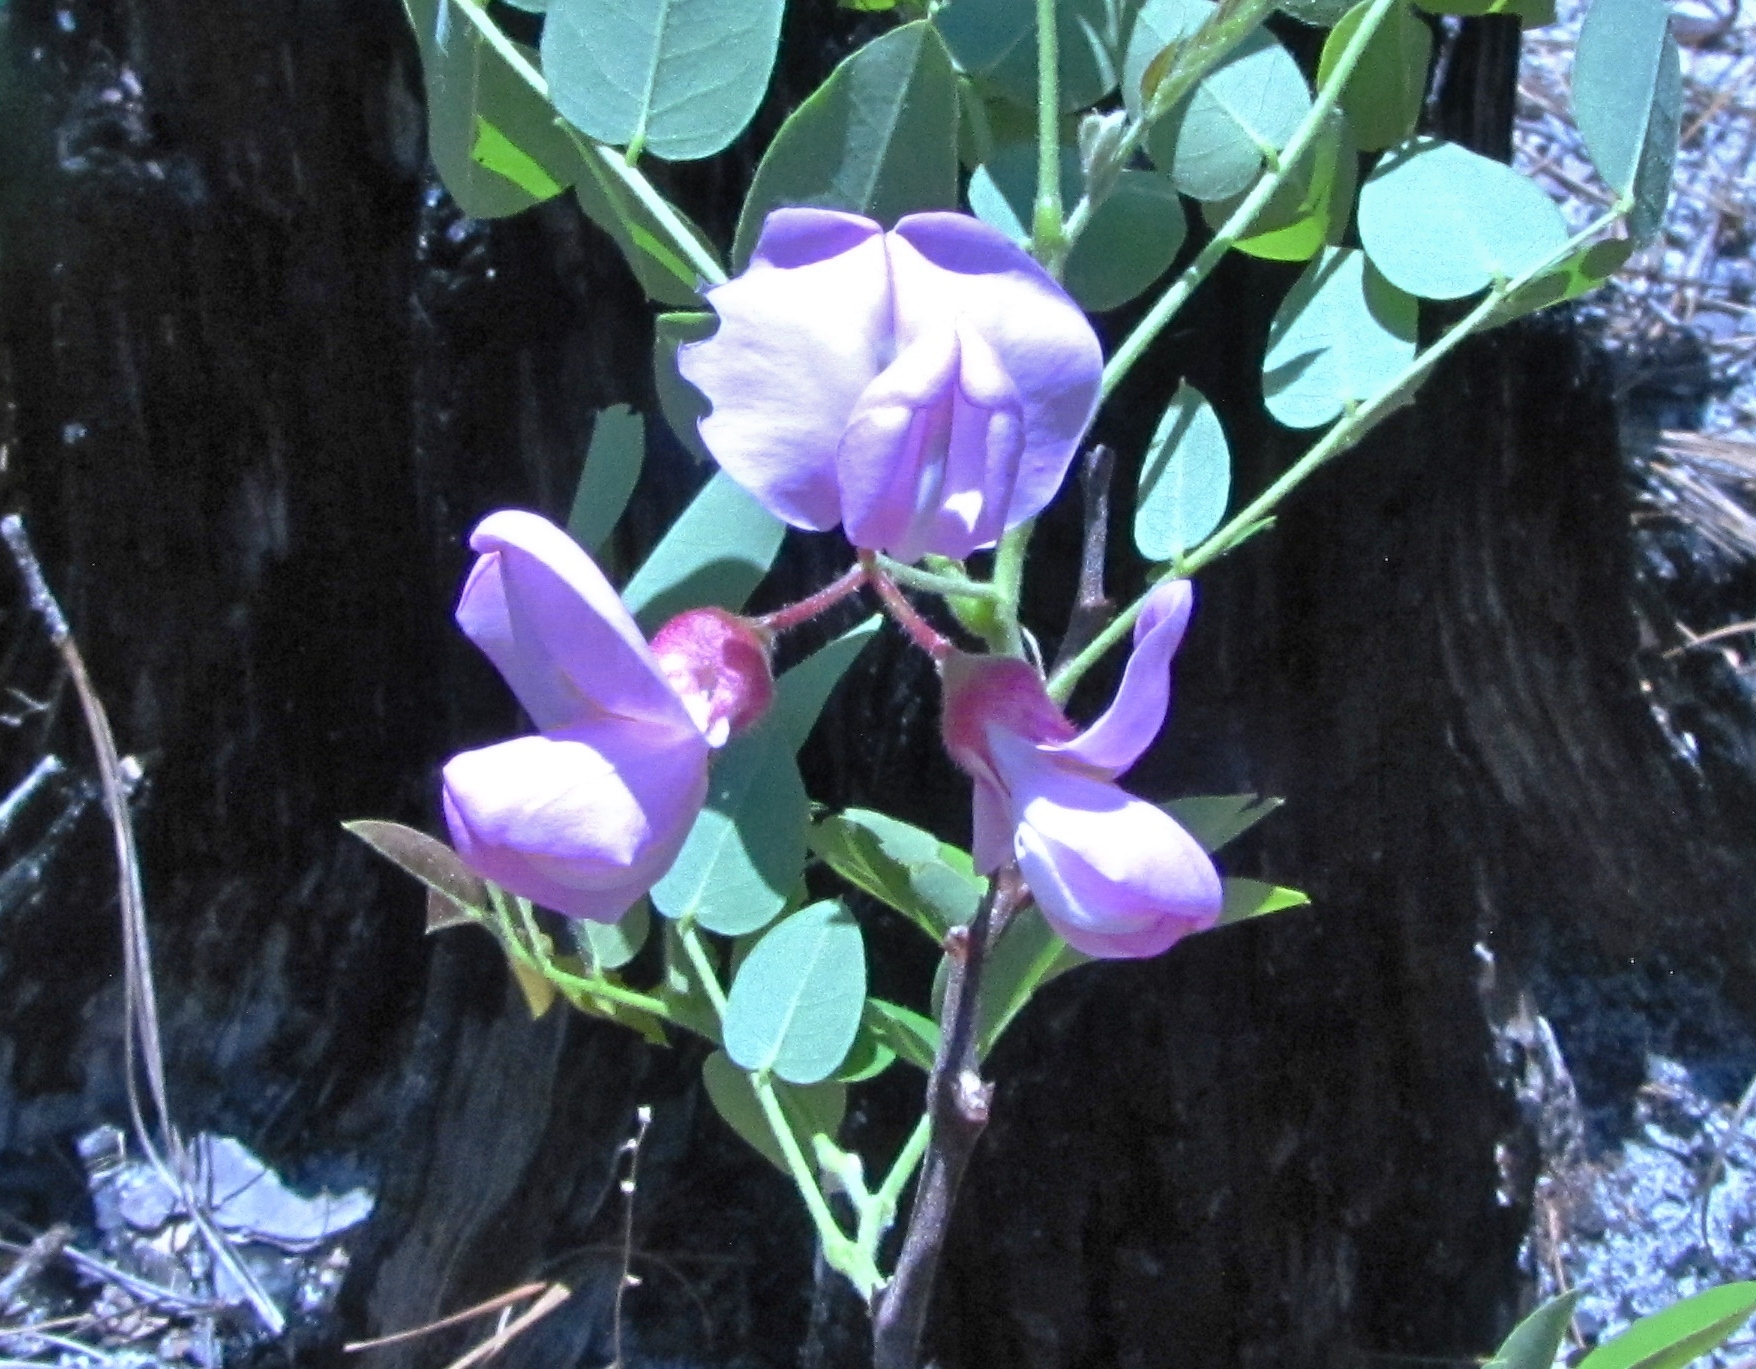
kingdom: Plantae
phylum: Tracheophyta
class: Magnoliopsida
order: Fabales
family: Fabaceae
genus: Robinia
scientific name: Robinia hispida
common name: Bristly locust
